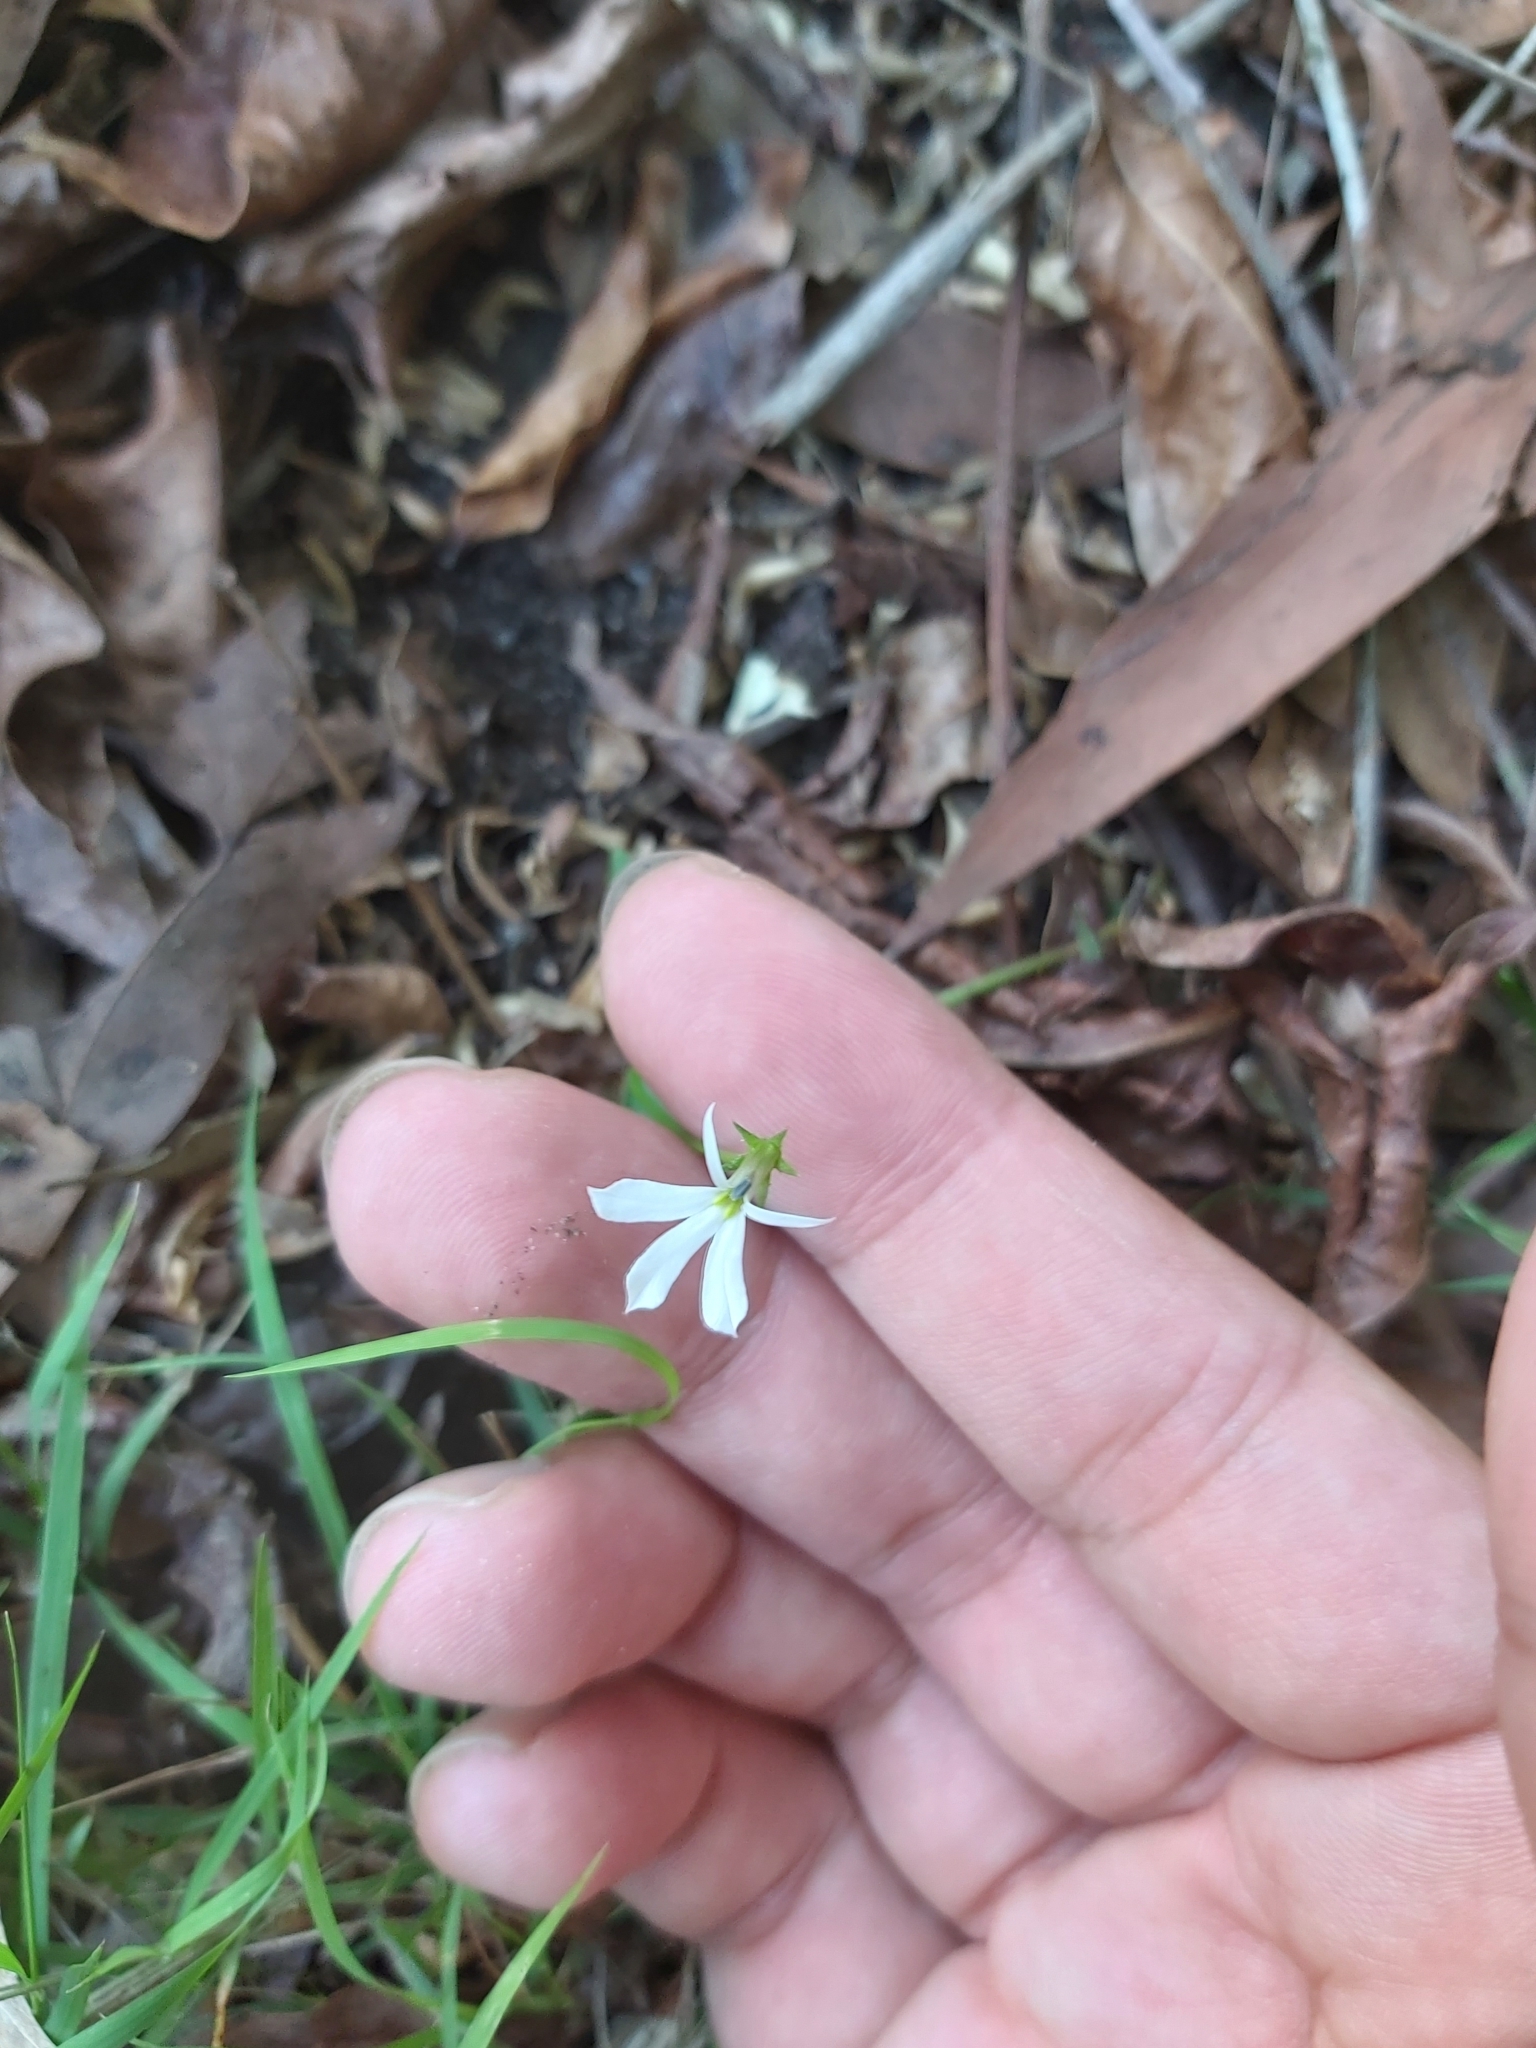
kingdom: Plantae
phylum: Tracheophyta
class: Magnoliopsida
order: Asterales
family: Campanulaceae
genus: Lobelia
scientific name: Lobelia purpurascens
